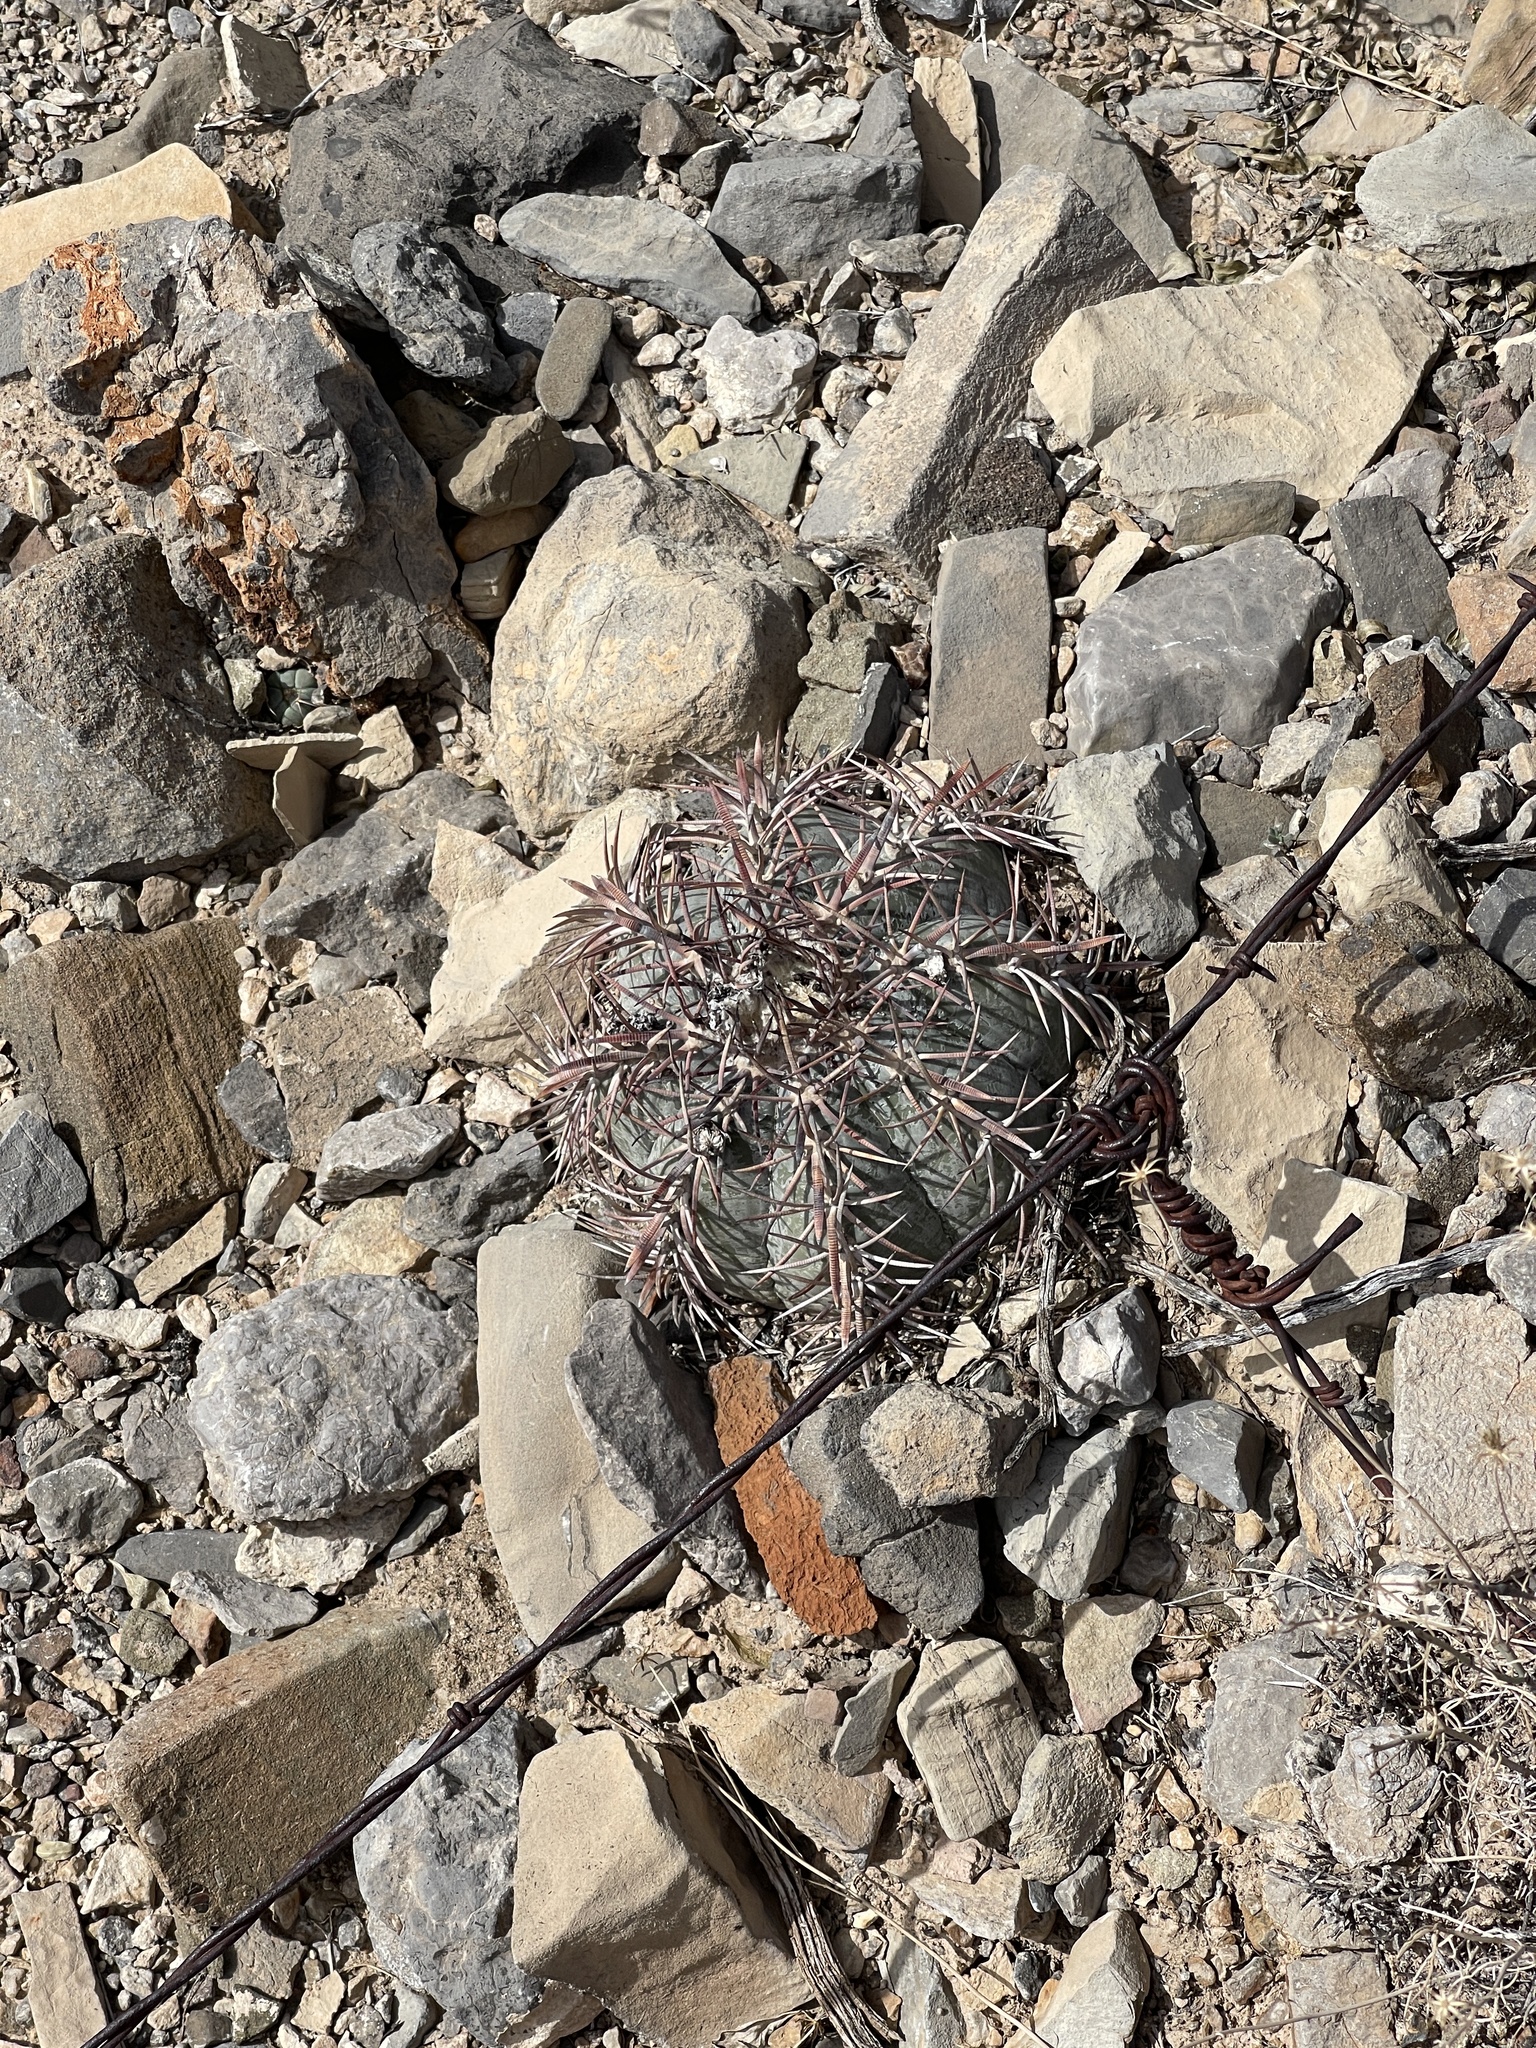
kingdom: Plantae
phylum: Tracheophyta
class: Magnoliopsida
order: Caryophyllales
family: Cactaceae
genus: Echinocactus
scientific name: Echinocactus horizonthalonius
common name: Devilshead
